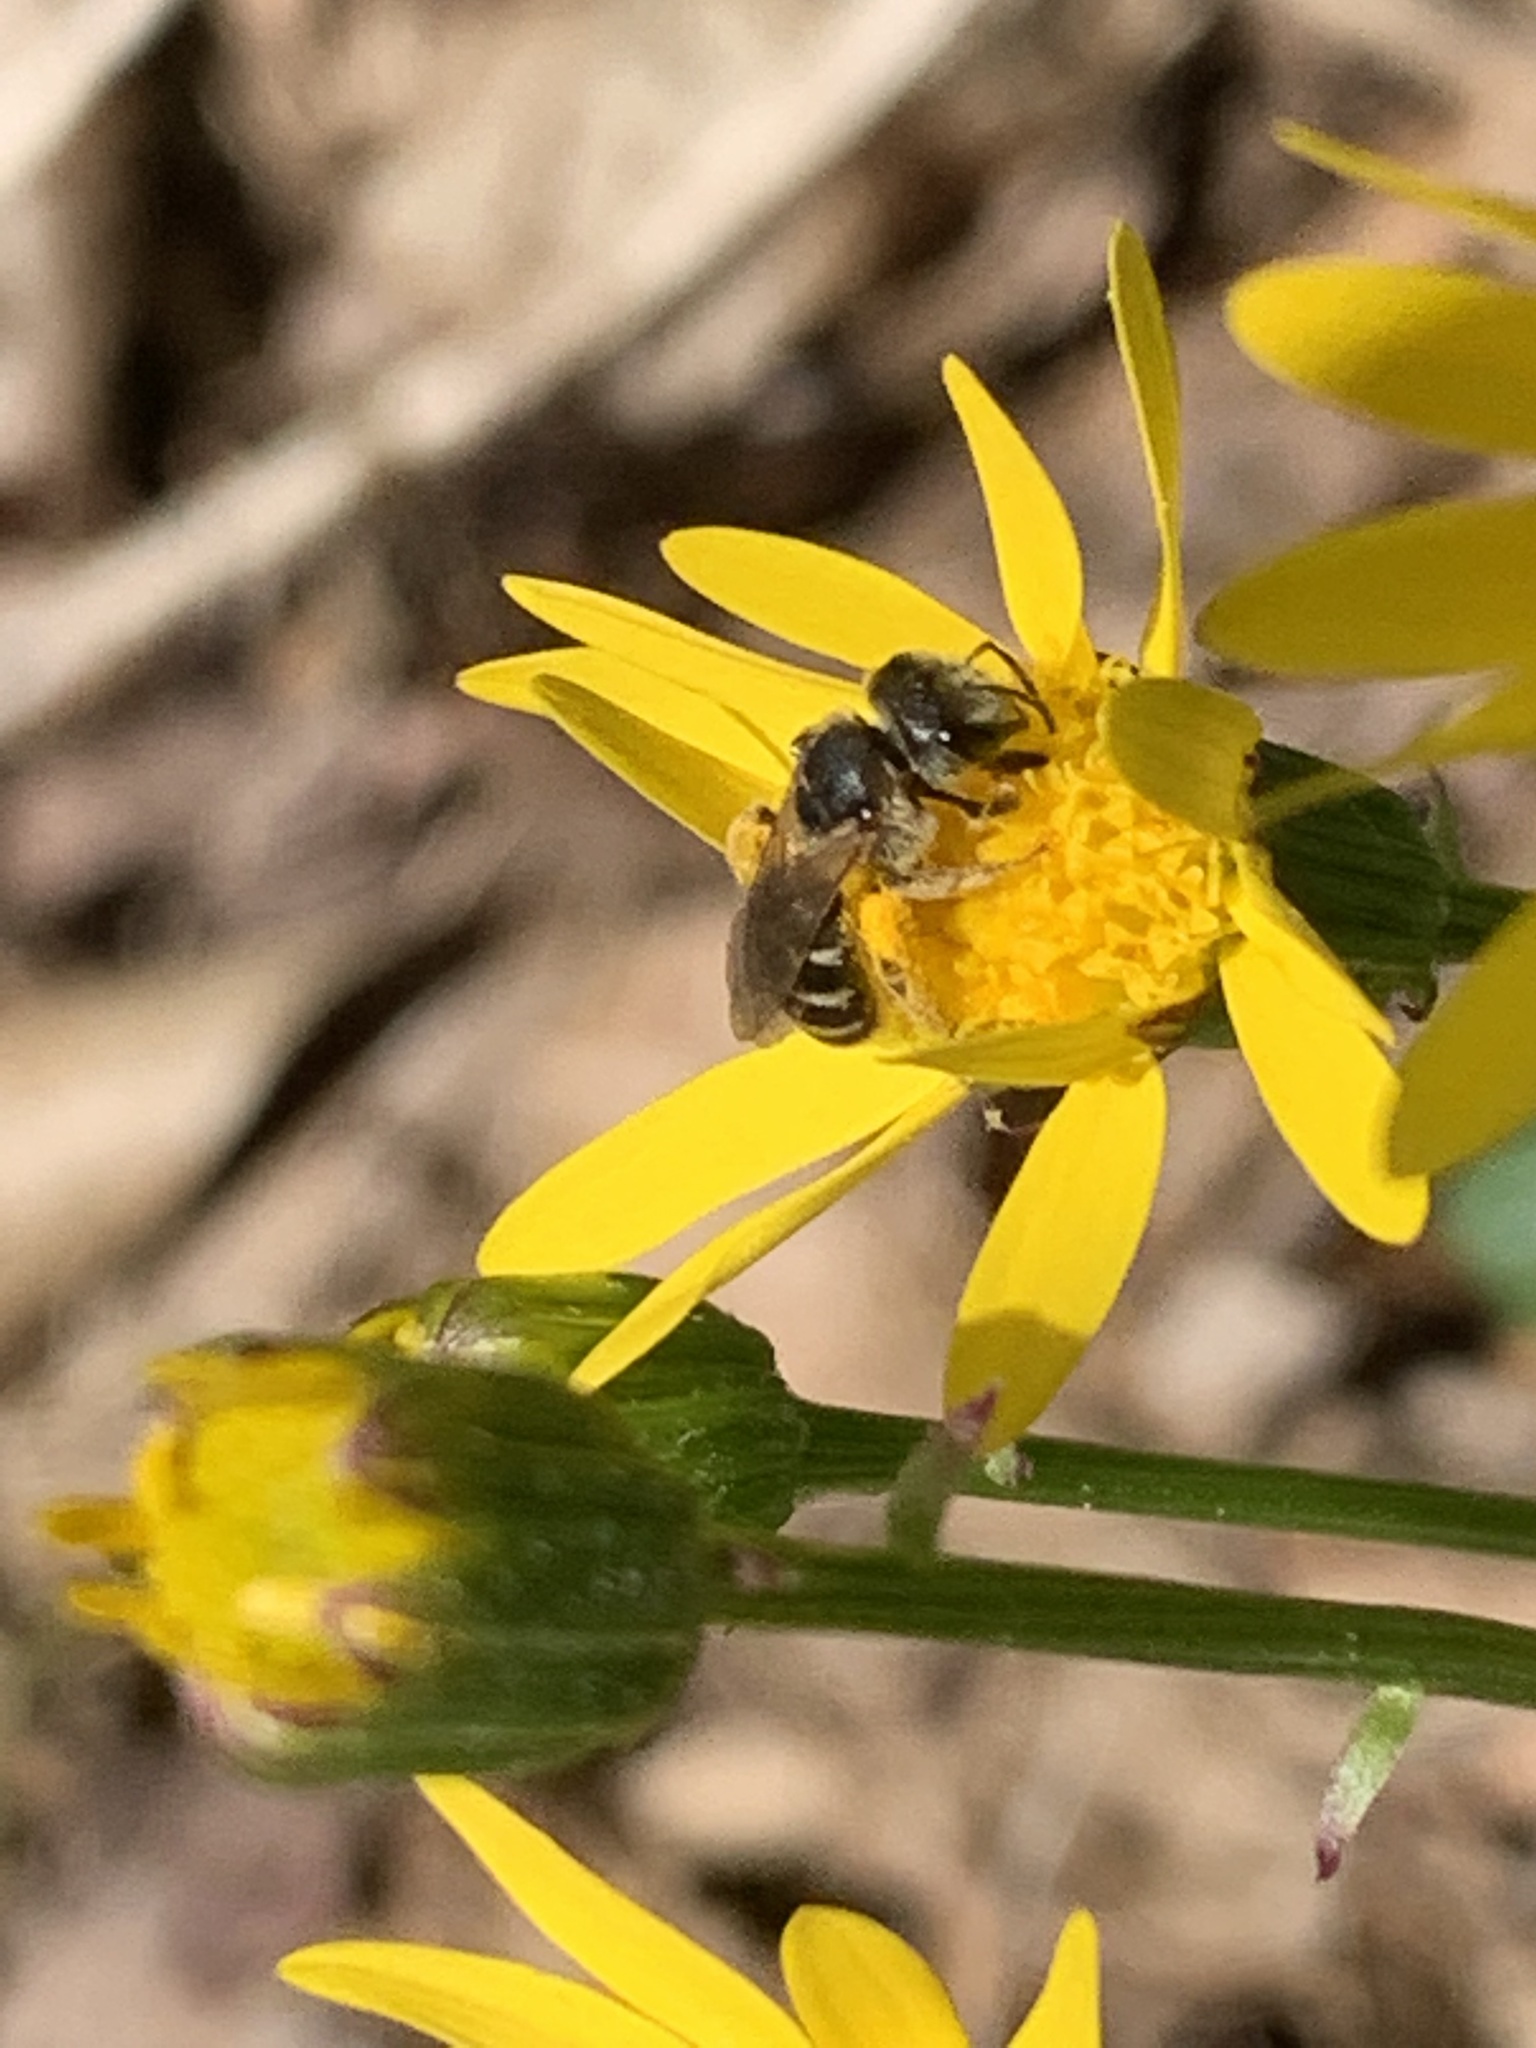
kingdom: Animalia
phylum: Arthropoda
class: Insecta
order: Hymenoptera
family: Halictidae
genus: Halictus
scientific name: Halictus ligatus
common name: Ligated furrow bee
